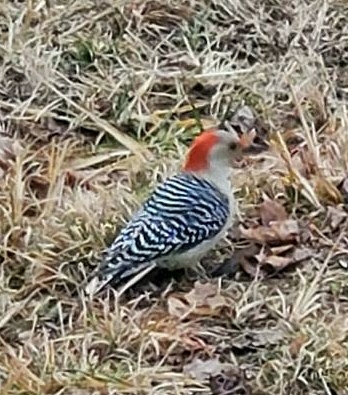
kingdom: Animalia
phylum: Chordata
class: Aves
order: Piciformes
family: Picidae
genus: Melanerpes
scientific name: Melanerpes carolinus
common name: Red-bellied woodpecker
